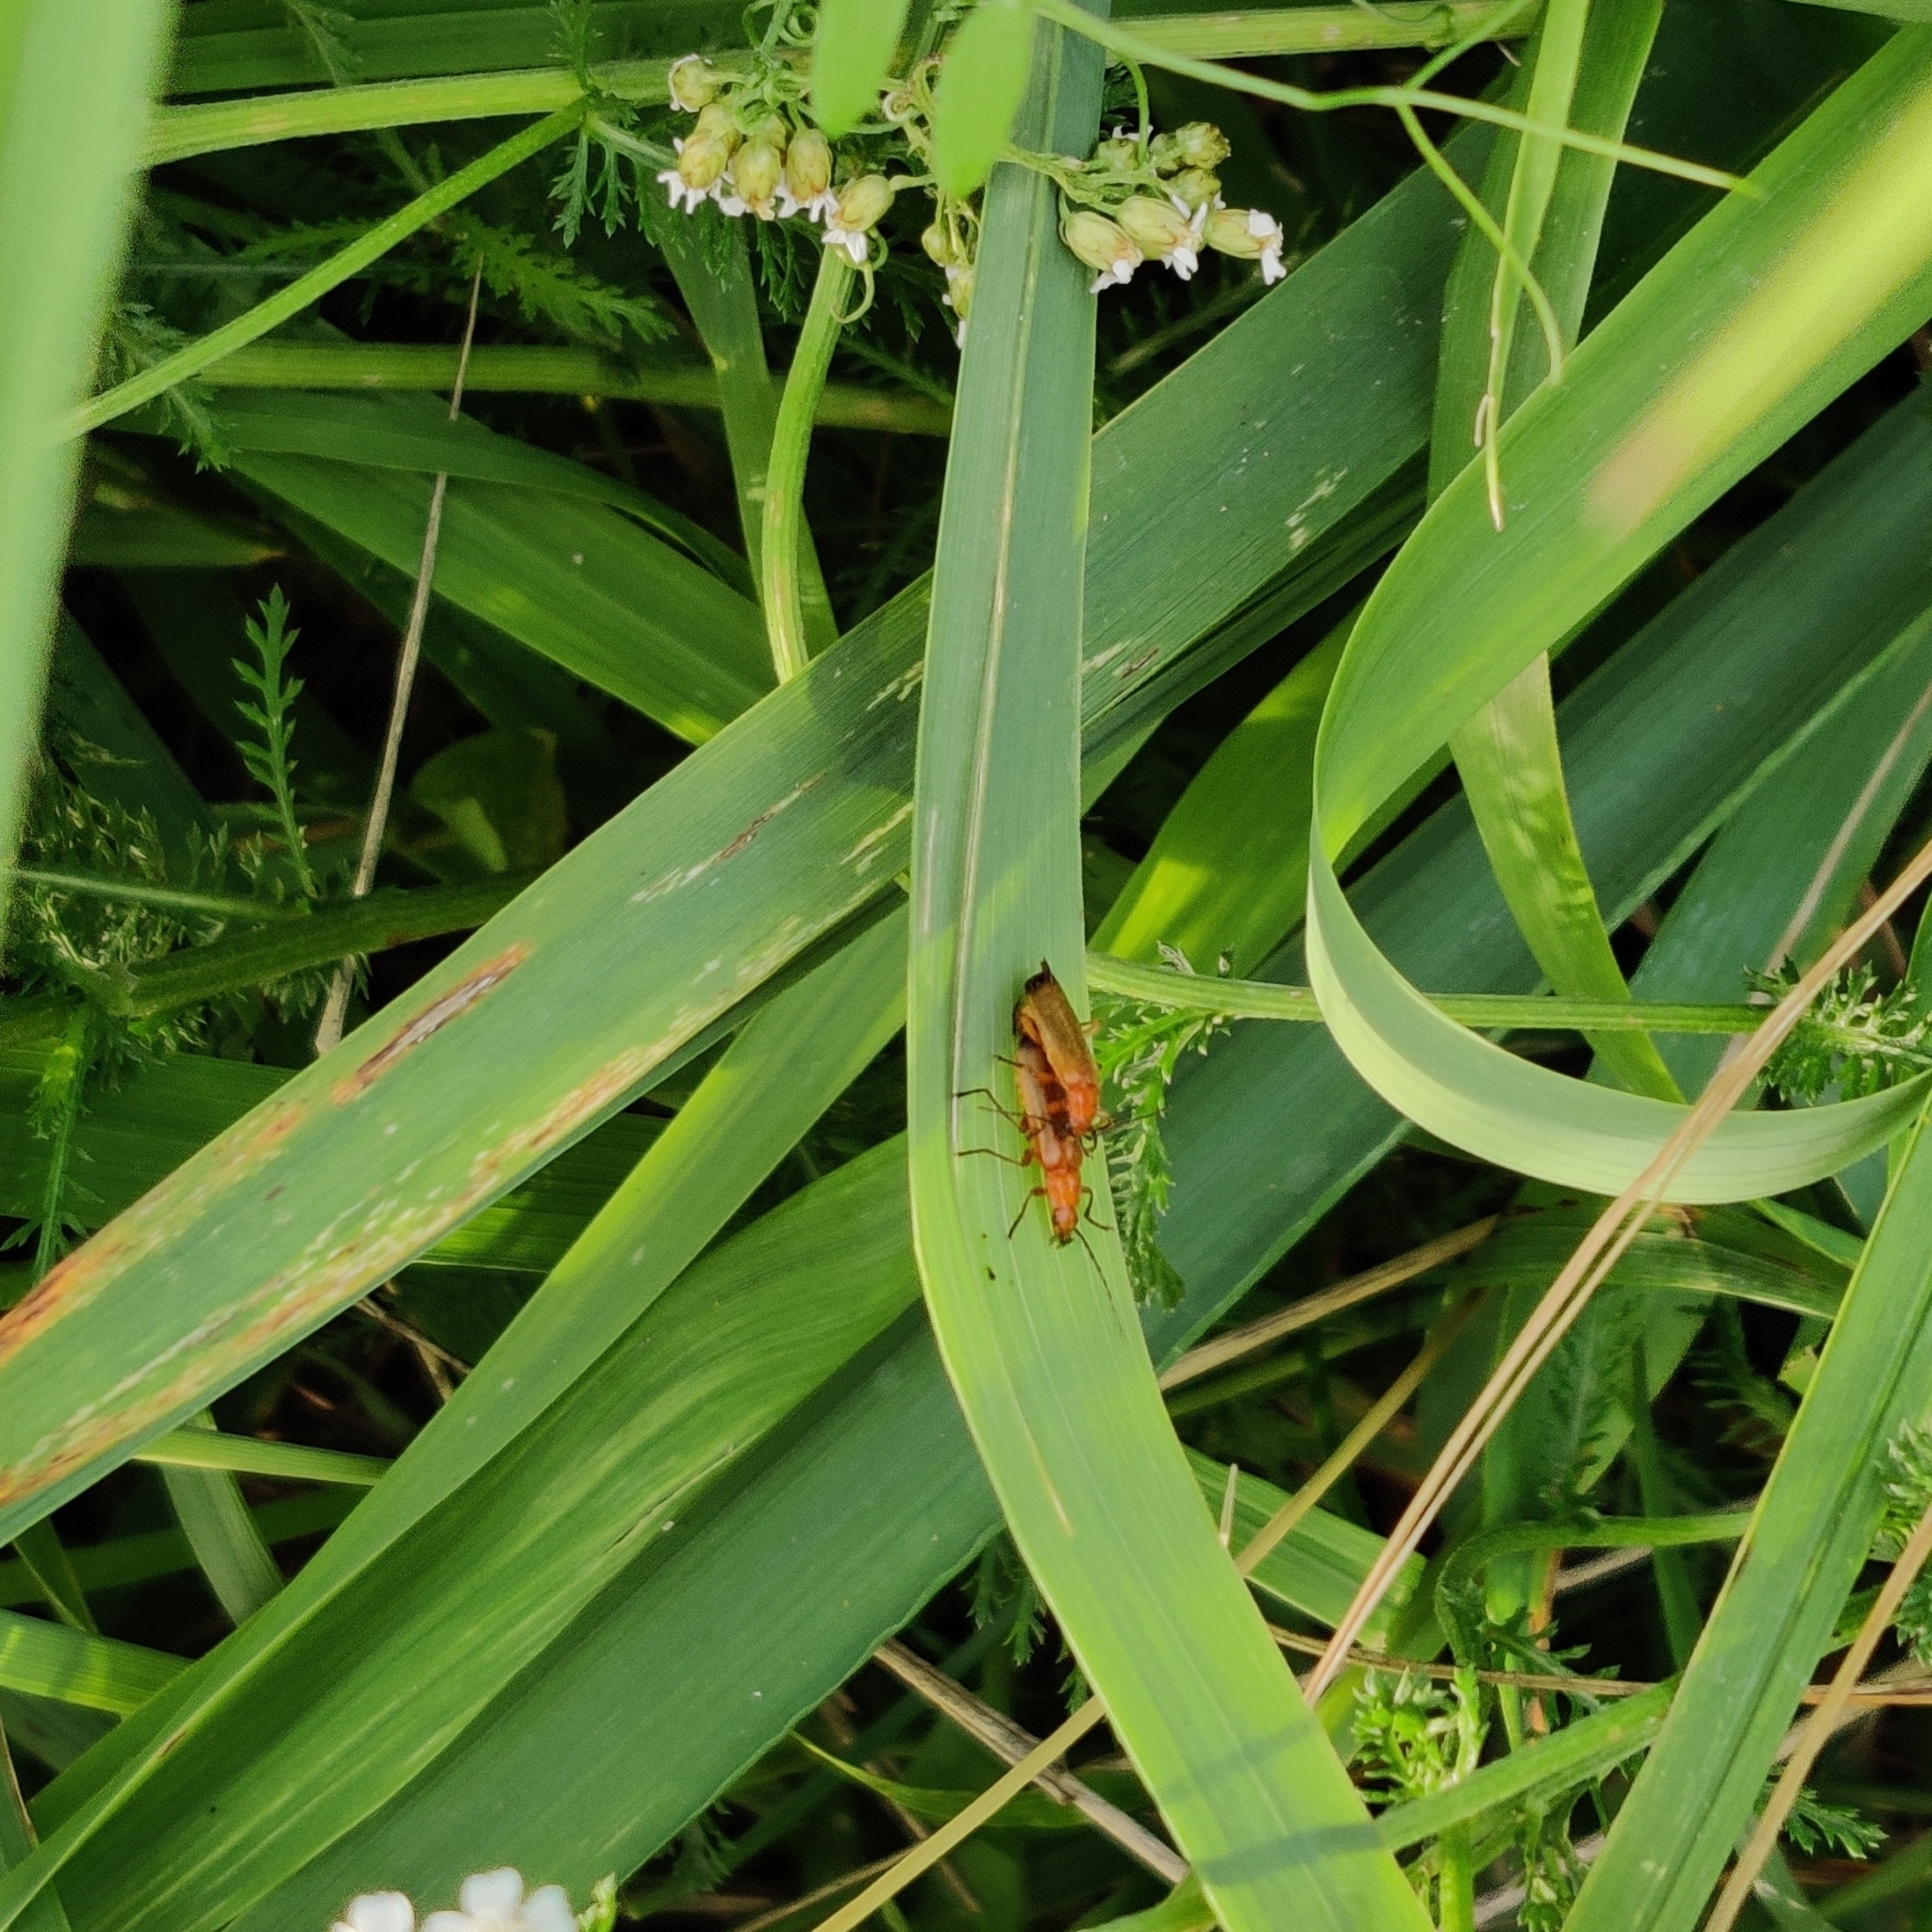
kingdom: Animalia
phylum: Arthropoda
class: Insecta
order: Coleoptera
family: Cantharidae
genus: Rhagonycha
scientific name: Rhagonycha fulva
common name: Common red soldier beetle
